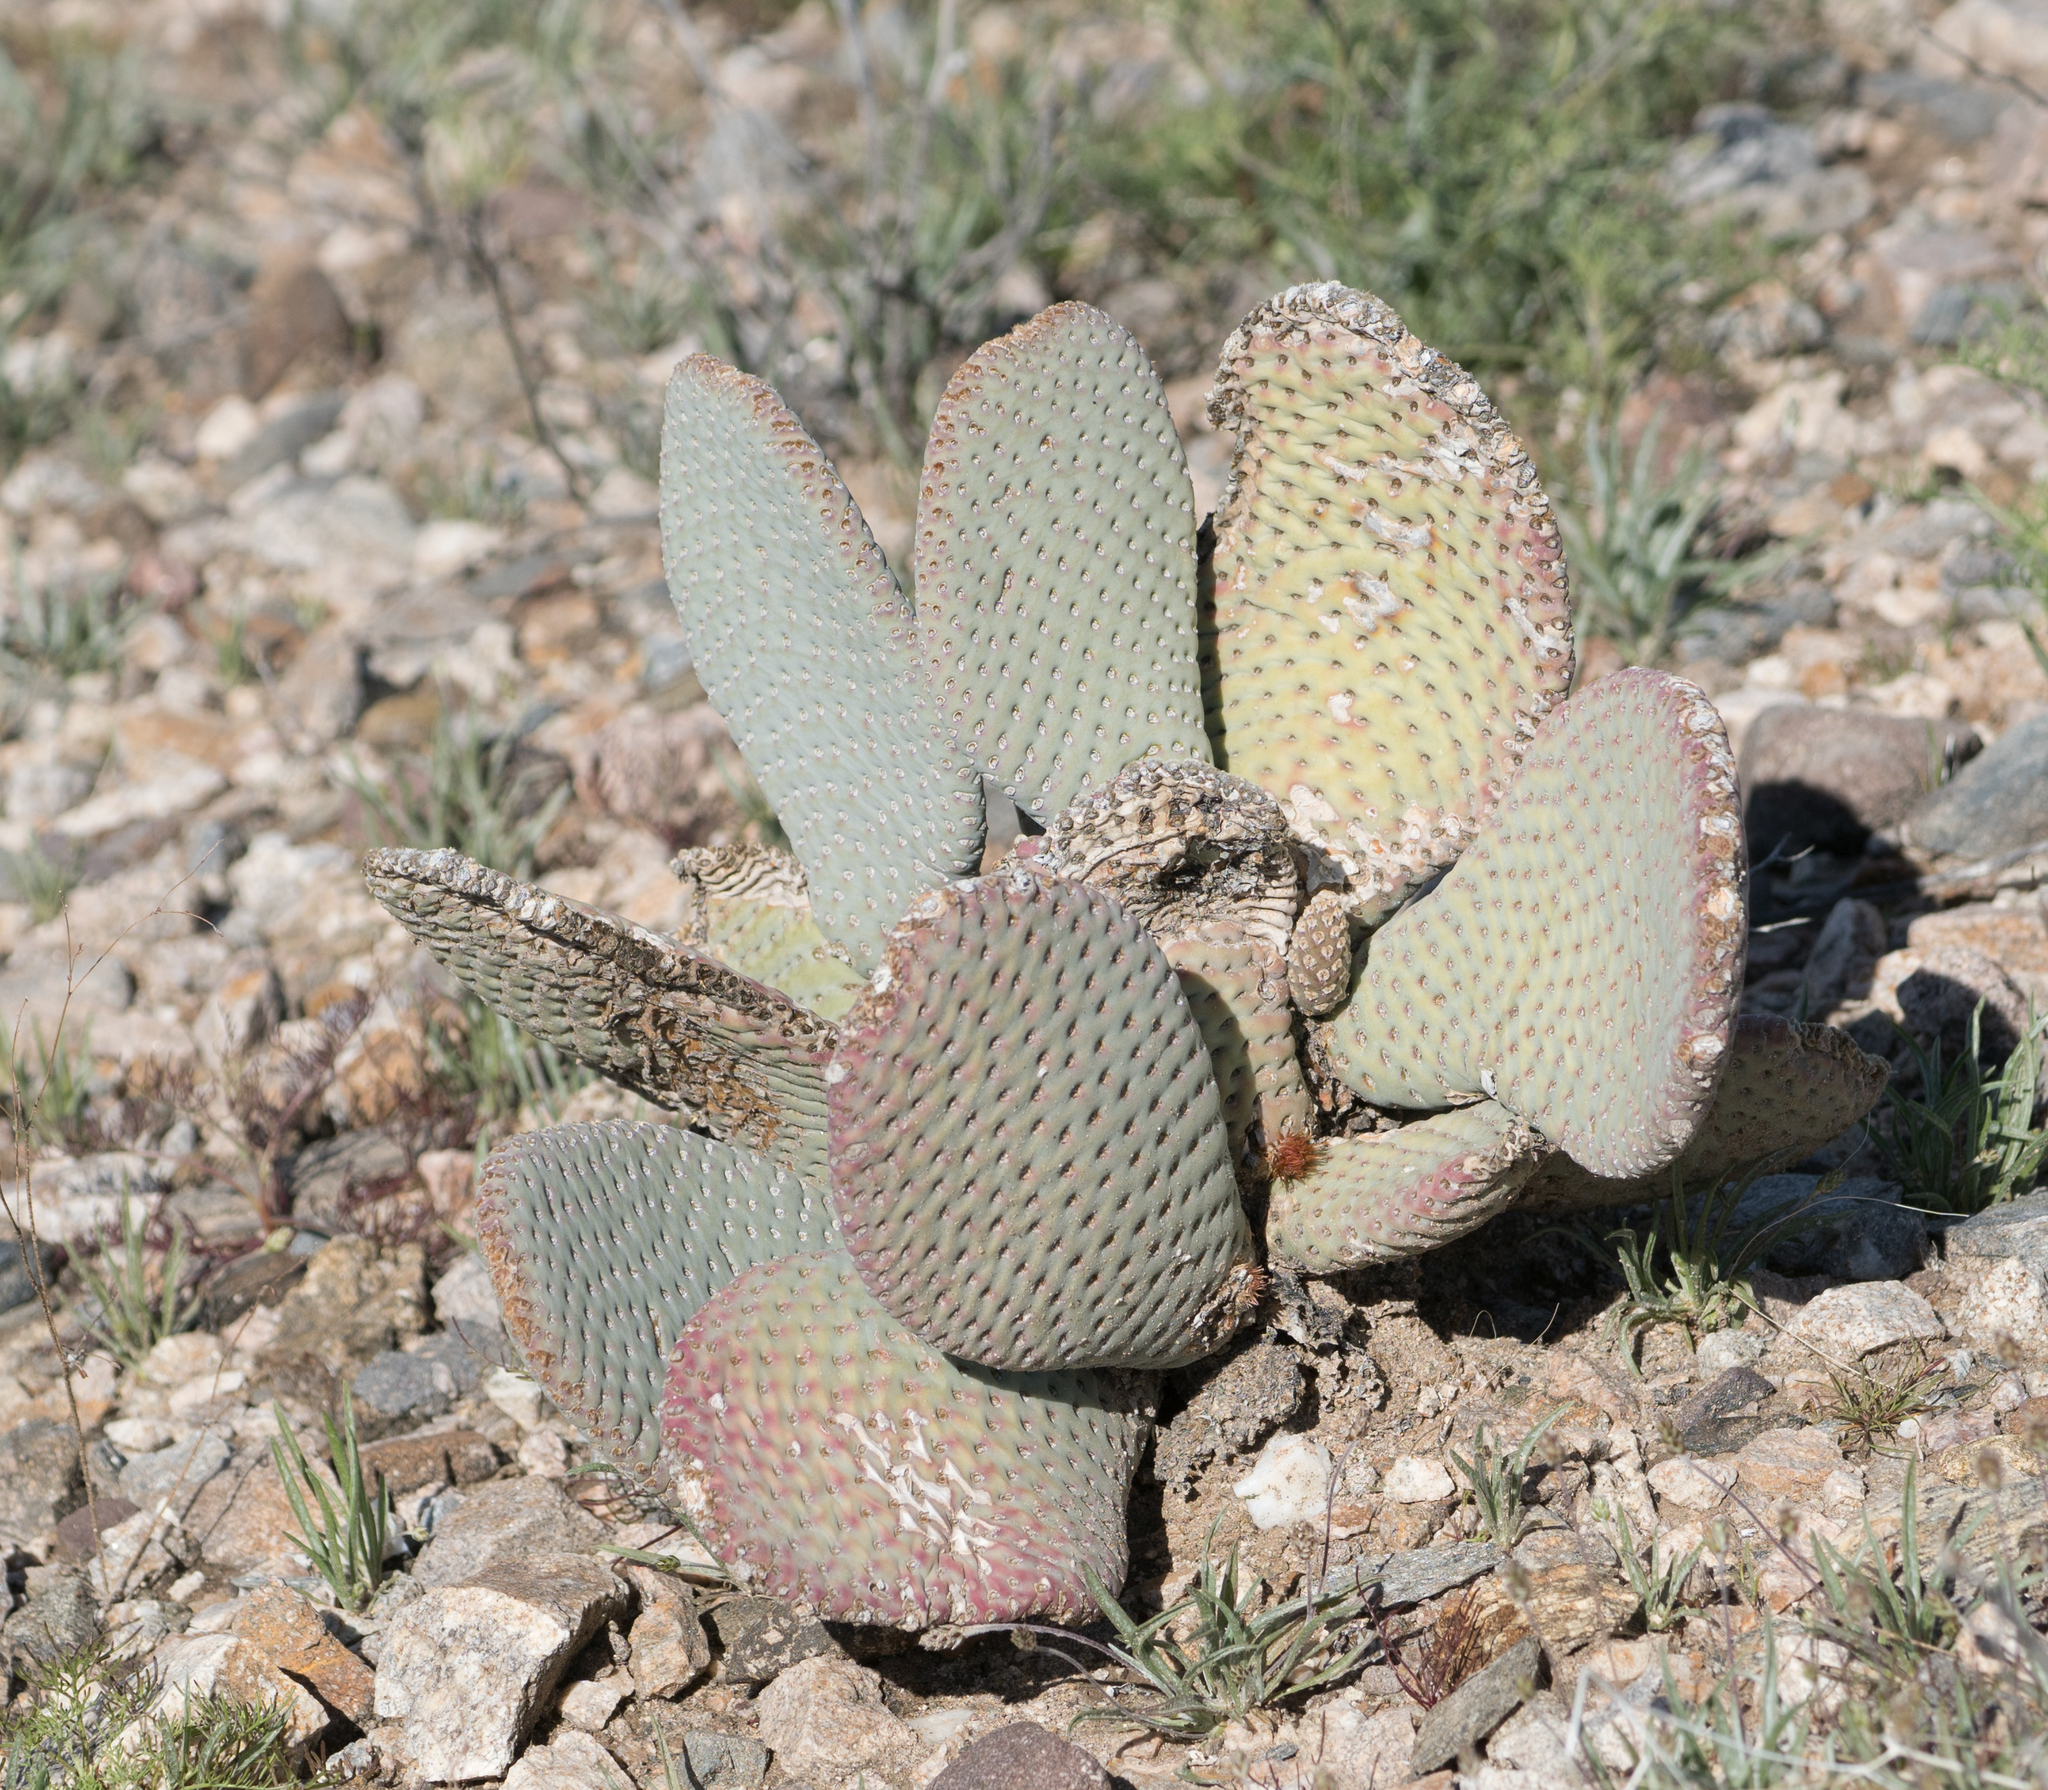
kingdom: Plantae
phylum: Tracheophyta
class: Magnoliopsida
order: Caryophyllales
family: Cactaceae
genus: Opuntia
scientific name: Opuntia basilaris
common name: Beavertail prickly-pear
